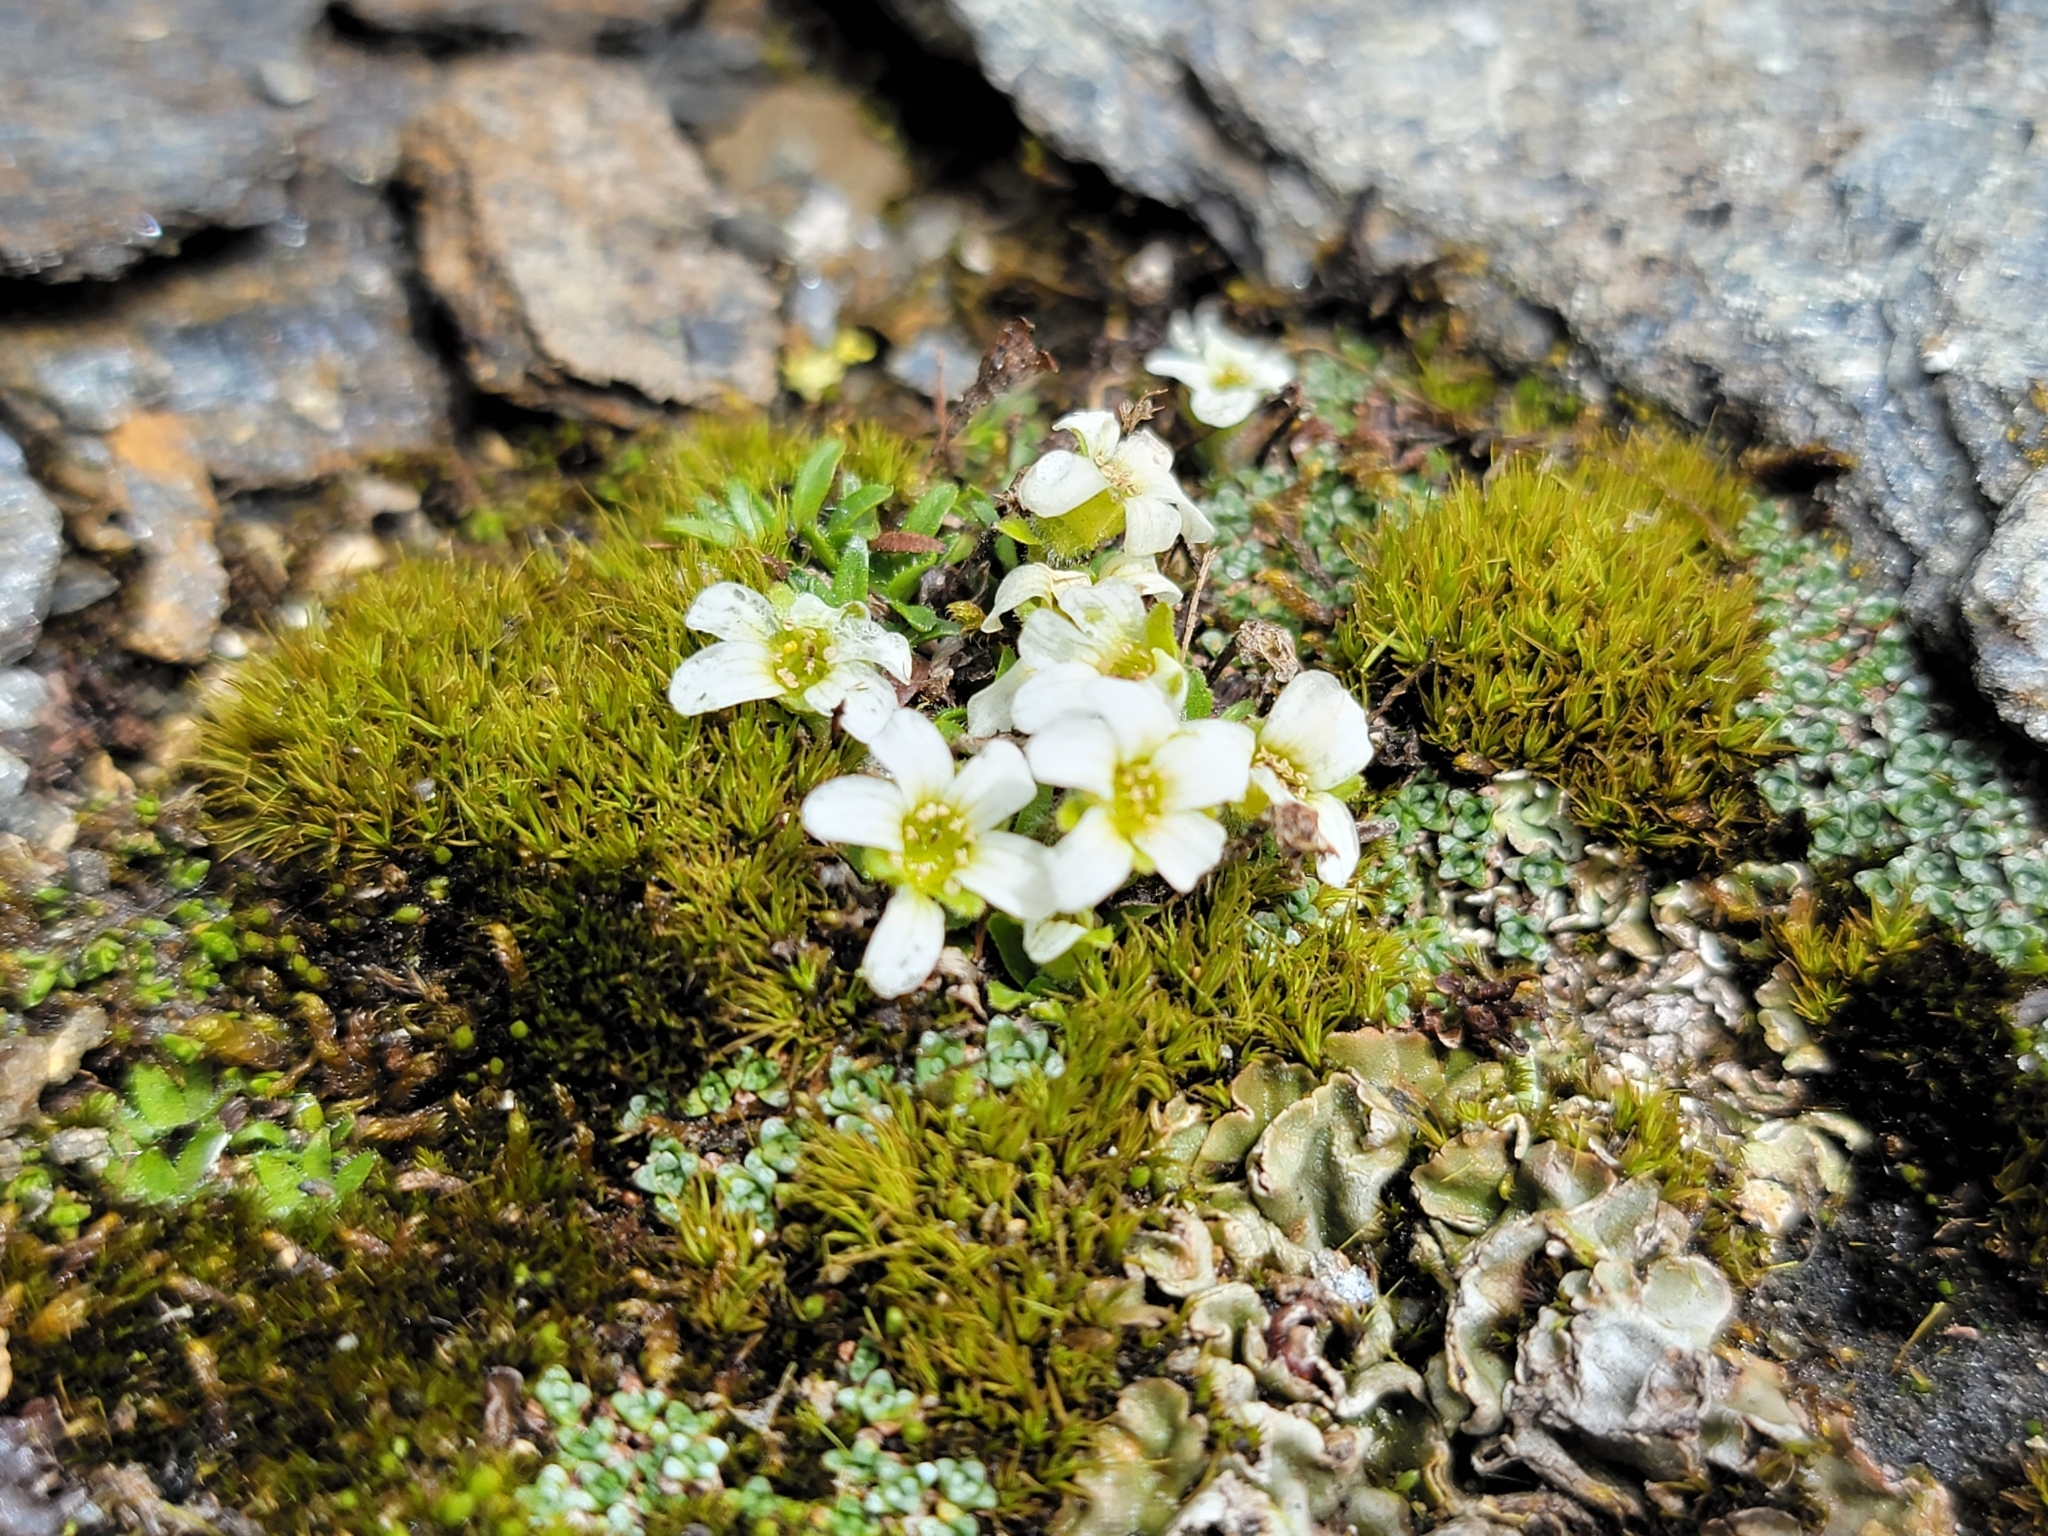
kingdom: Plantae
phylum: Tracheophyta
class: Magnoliopsida
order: Saxifragales
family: Saxifragaceae
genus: Saxifraga
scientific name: Saxifraga androsacea
